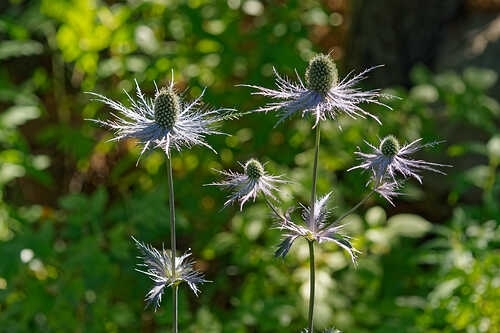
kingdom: Plantae
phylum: Tracheophyta
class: Magnoliopsida
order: Apiales
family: Apiaceae
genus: Eryngium
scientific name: Eryngium alpinum
